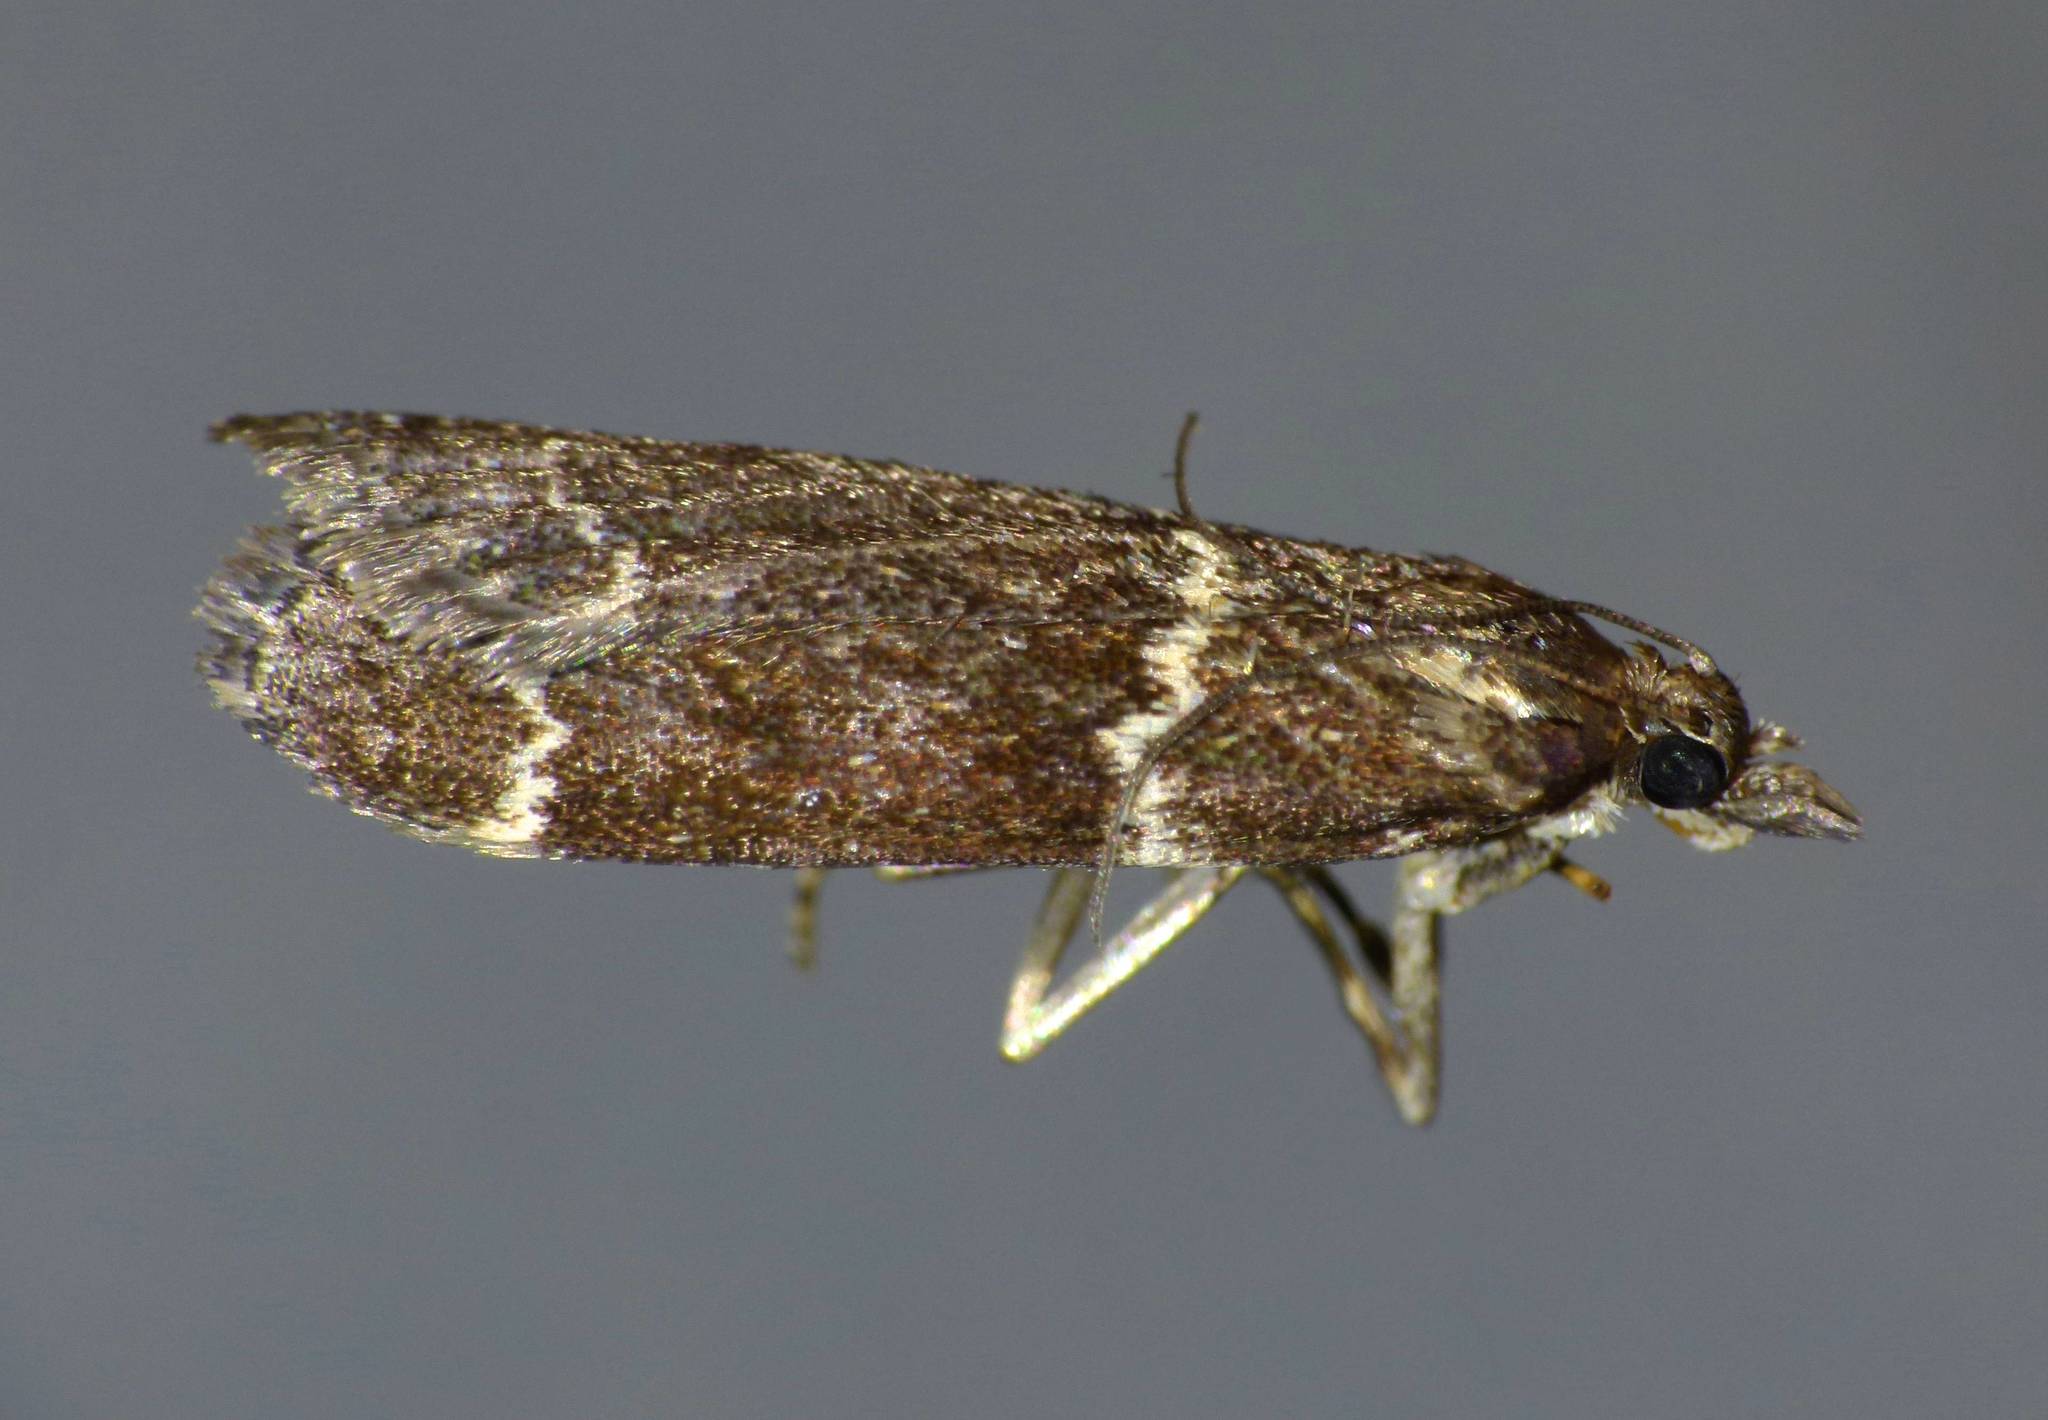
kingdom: Animalia
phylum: Arthropoda
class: Insecta
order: Lepidoptera
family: Crambidae
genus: Eudonia
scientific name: Eudonia leucogramma
